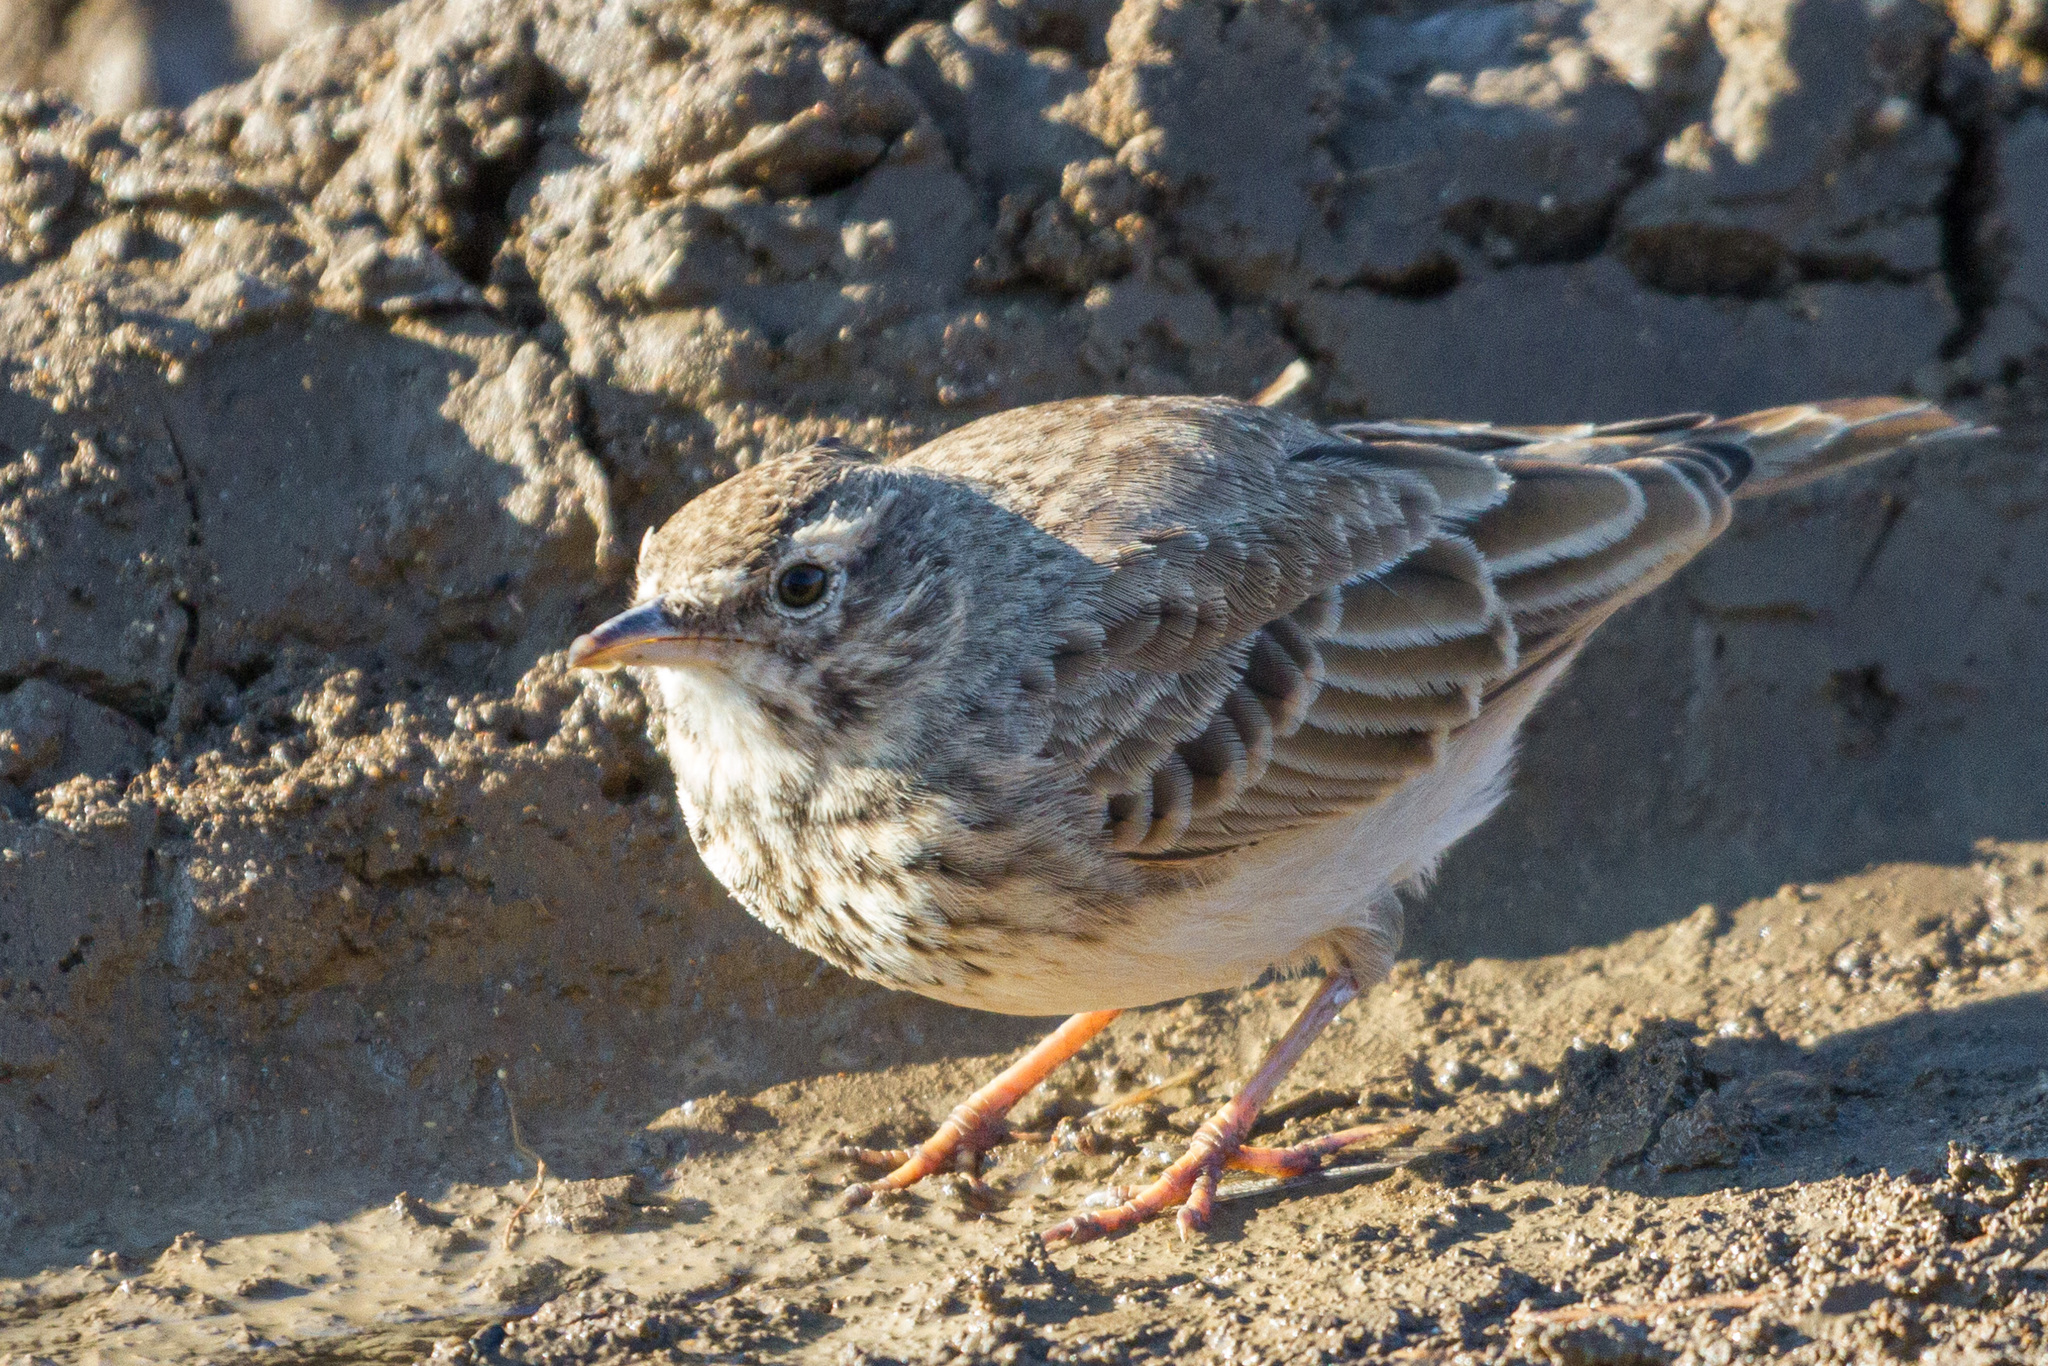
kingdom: Animalia
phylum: Chordata
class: Aves
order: Passeriformes
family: Alaudidae
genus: Galerida
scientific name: Galerida cristata
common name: Crested lark
